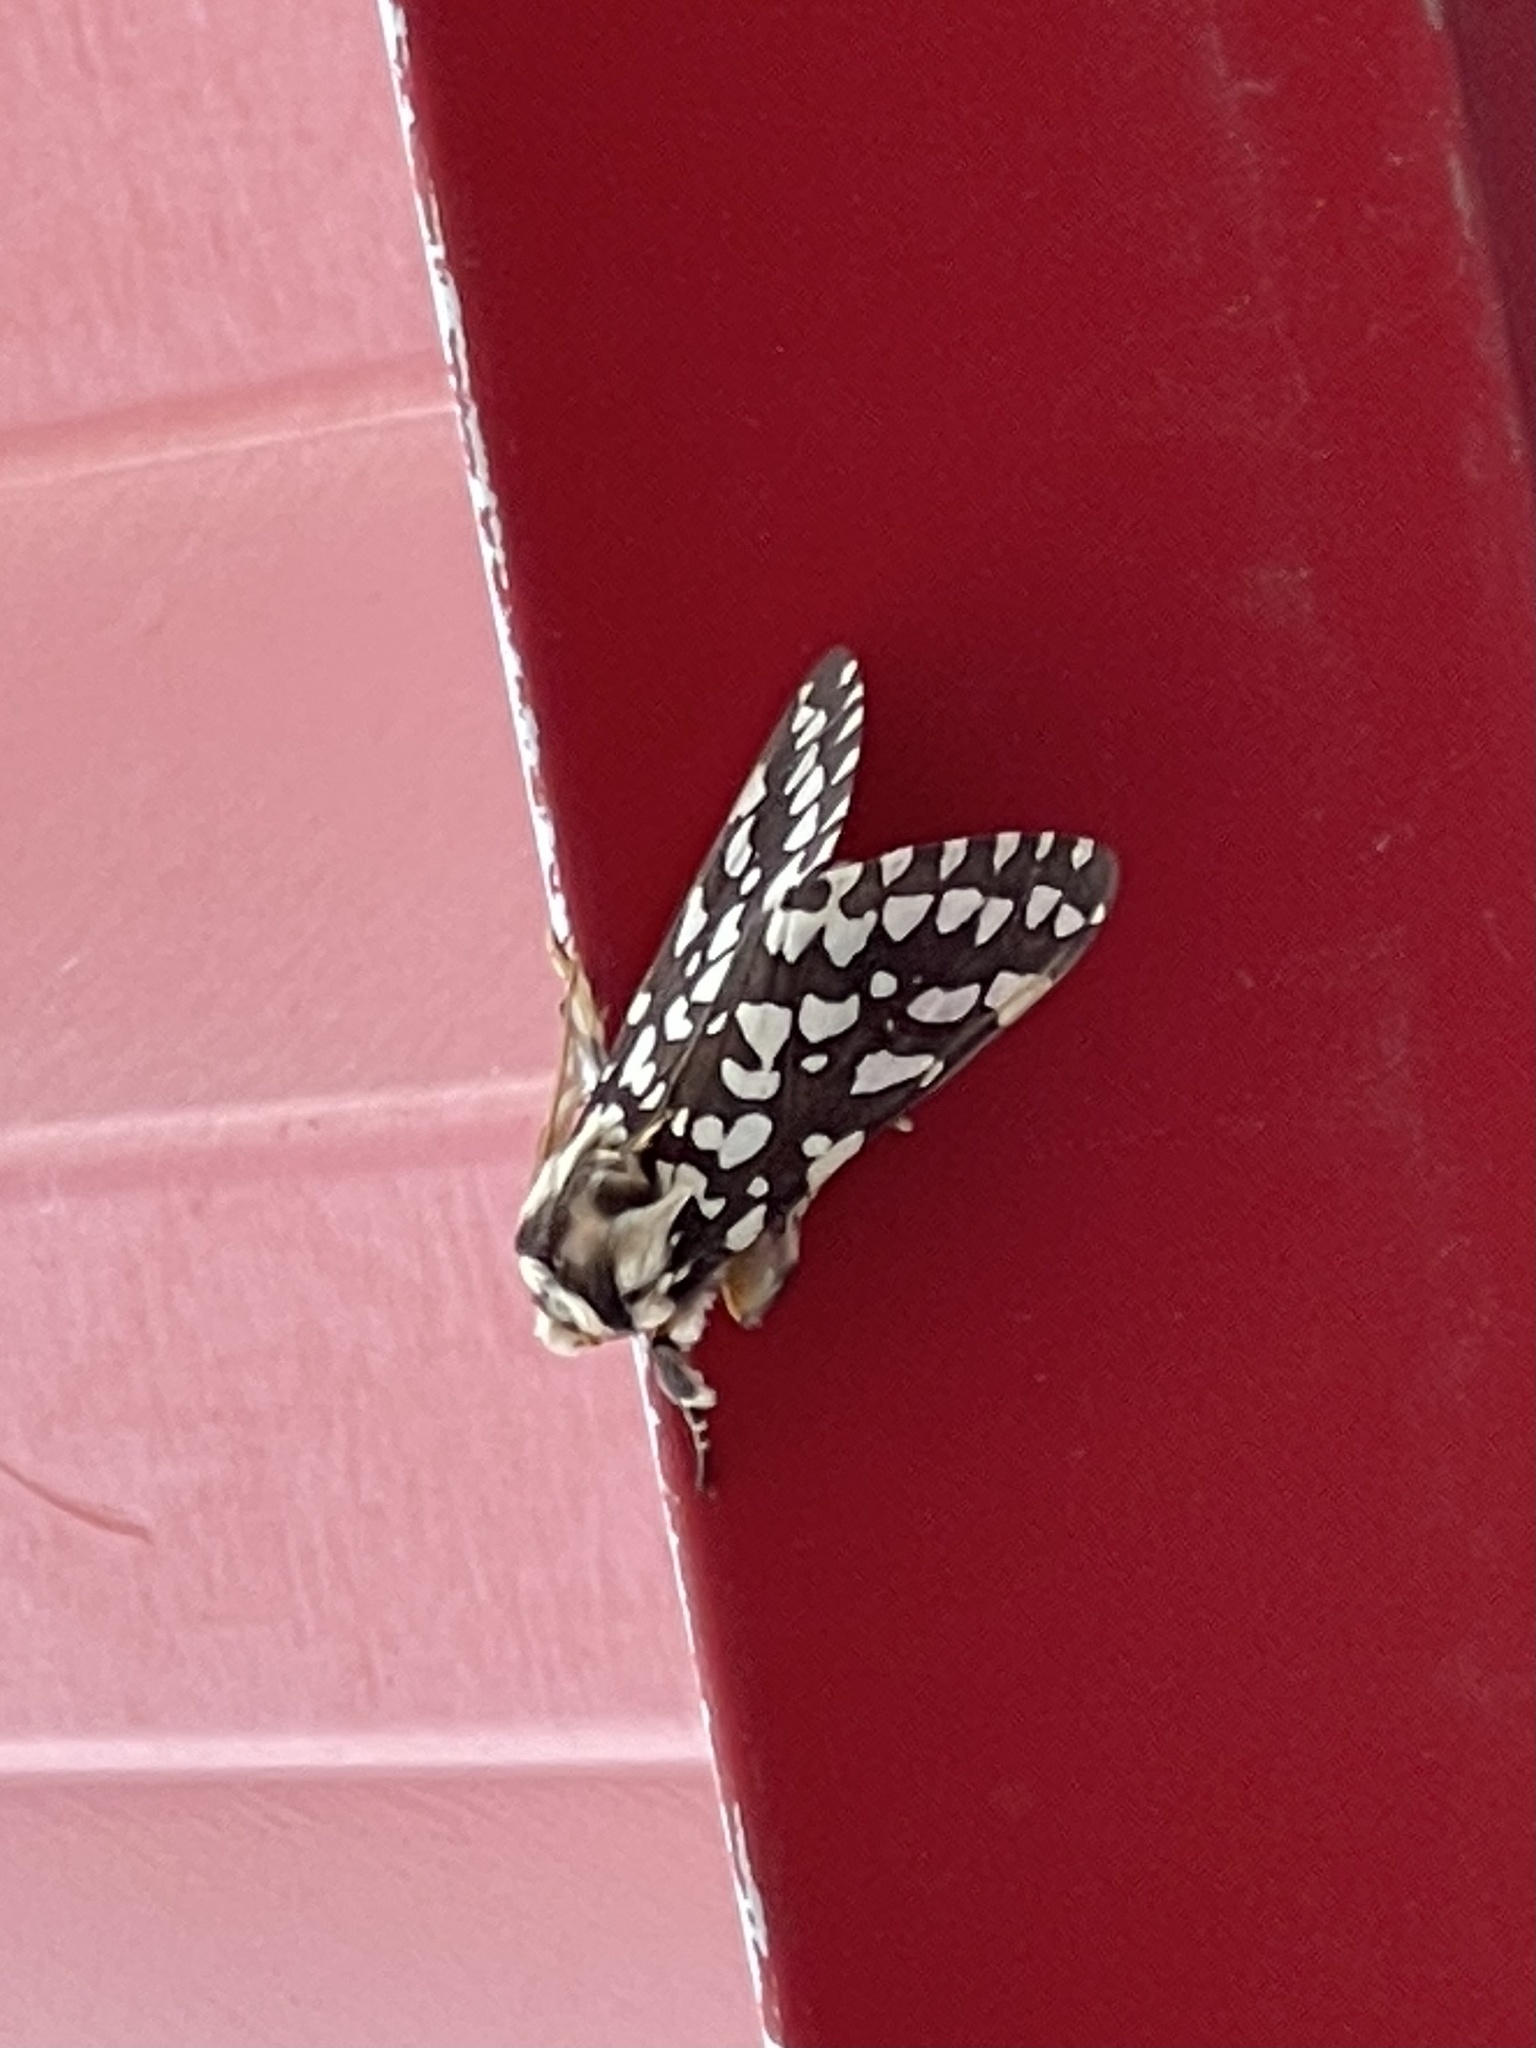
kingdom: Animalia
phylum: Arthropoda
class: Insecta
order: Lepidoptera
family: Erebidae
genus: Lophocampa
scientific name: Lophocampa ingens
